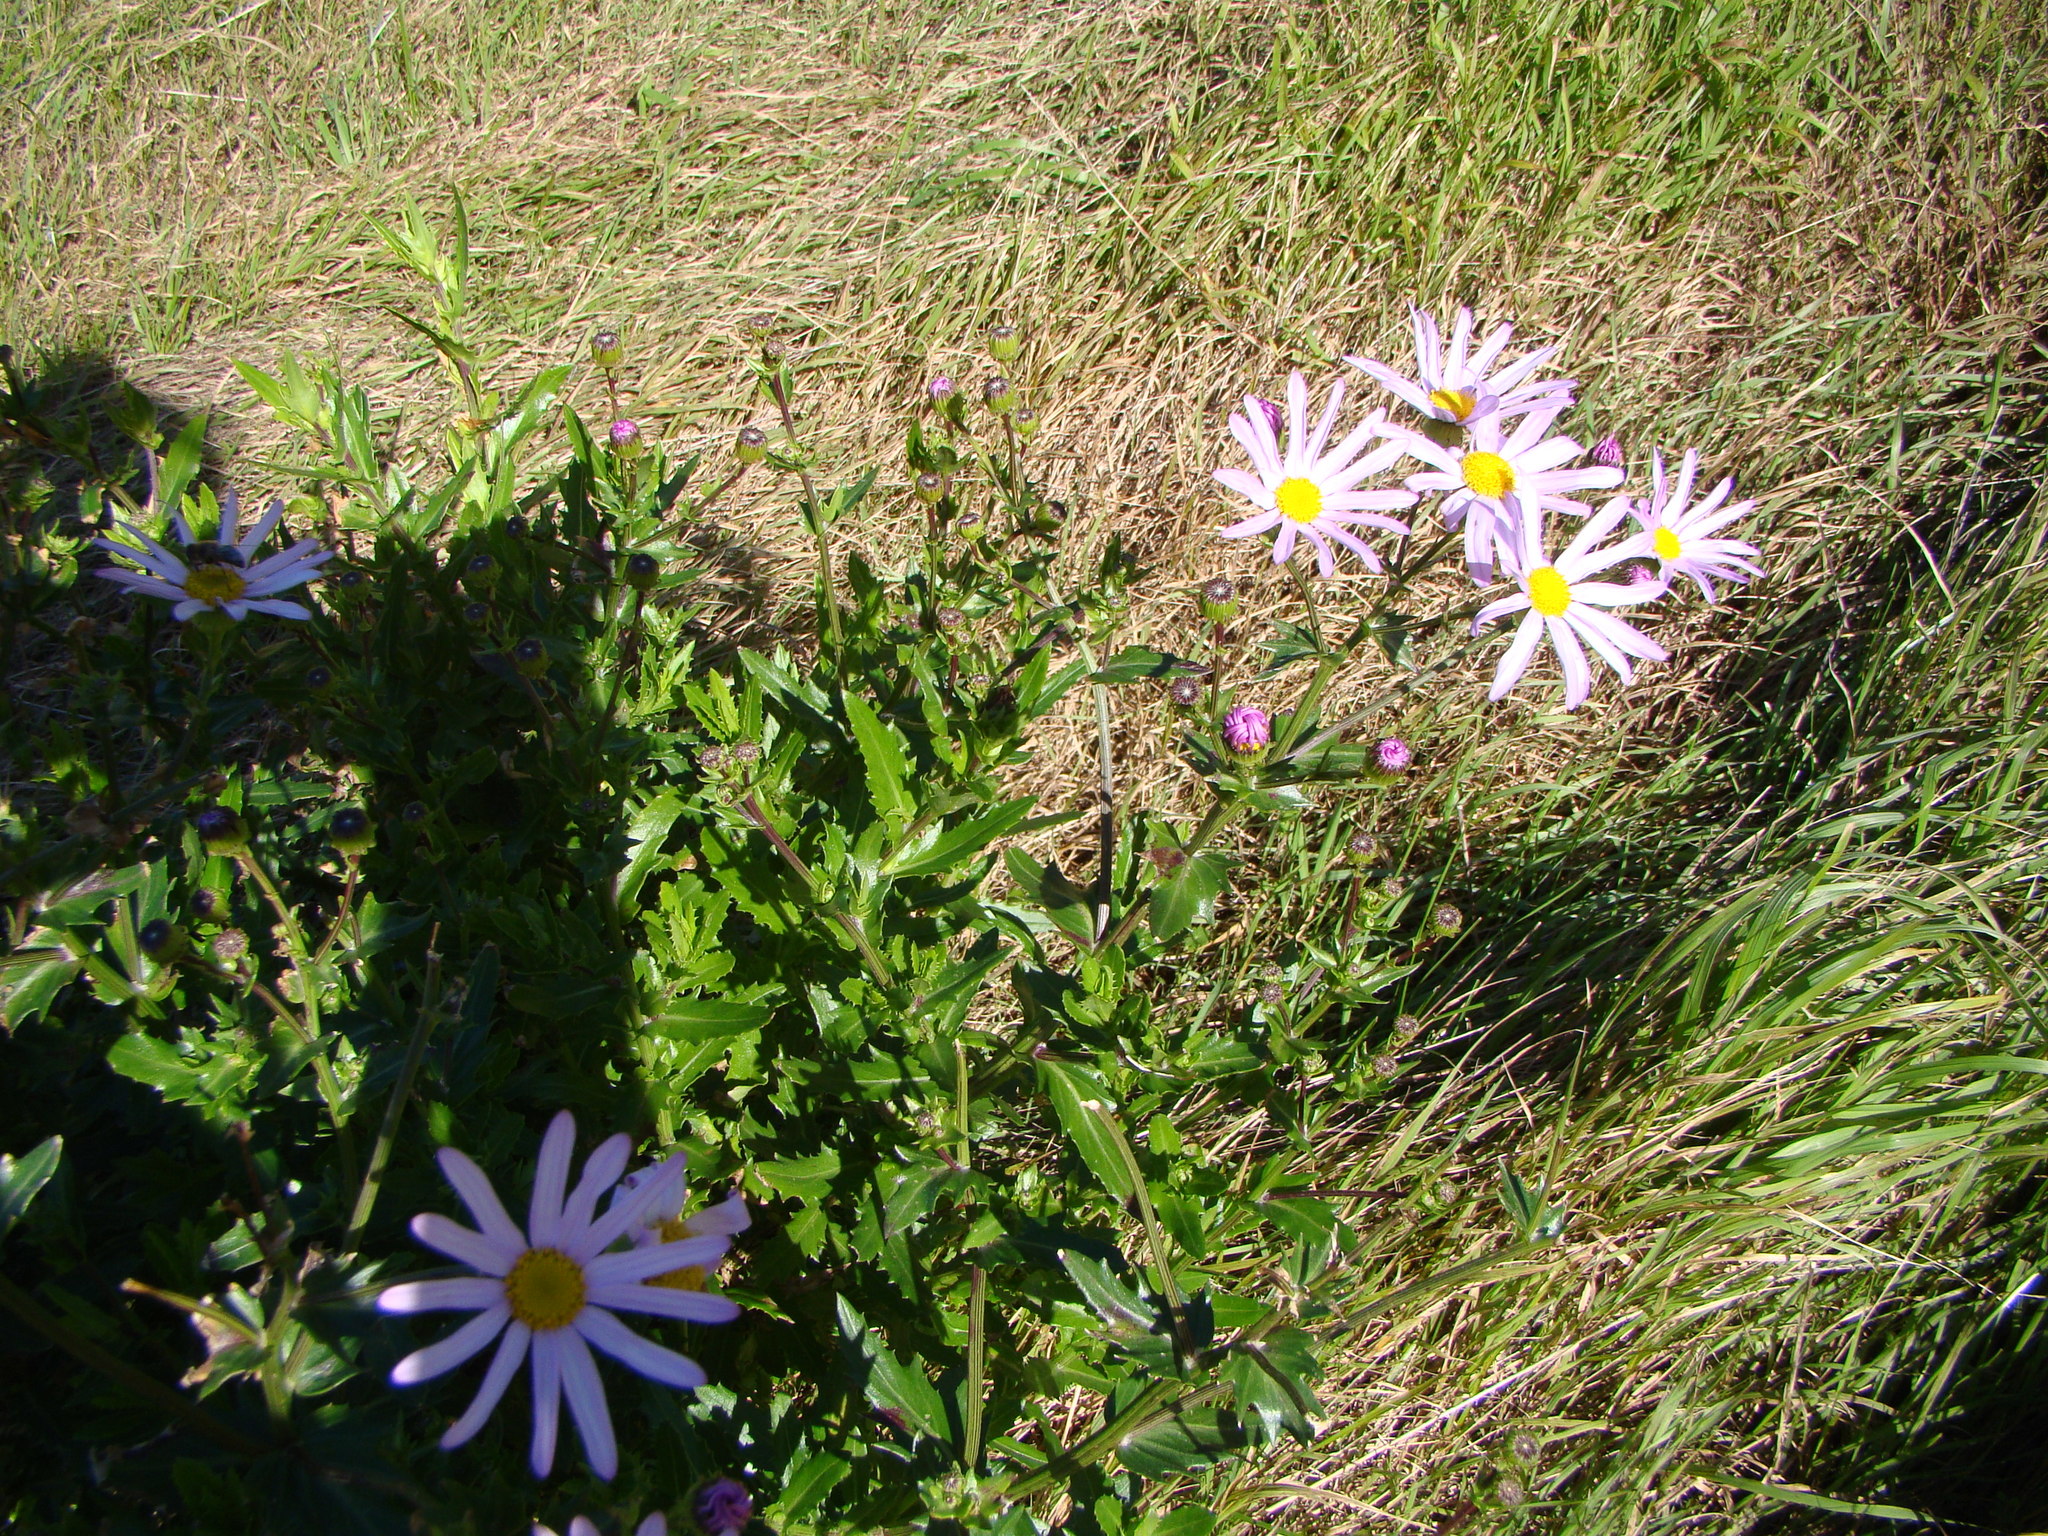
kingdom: Plantae
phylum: Tracheophyta
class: Magnoliopsida
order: Asterales
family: Asteraceae
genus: Senecio
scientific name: Senecio glastifolius
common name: Woad-leaved ragwort
